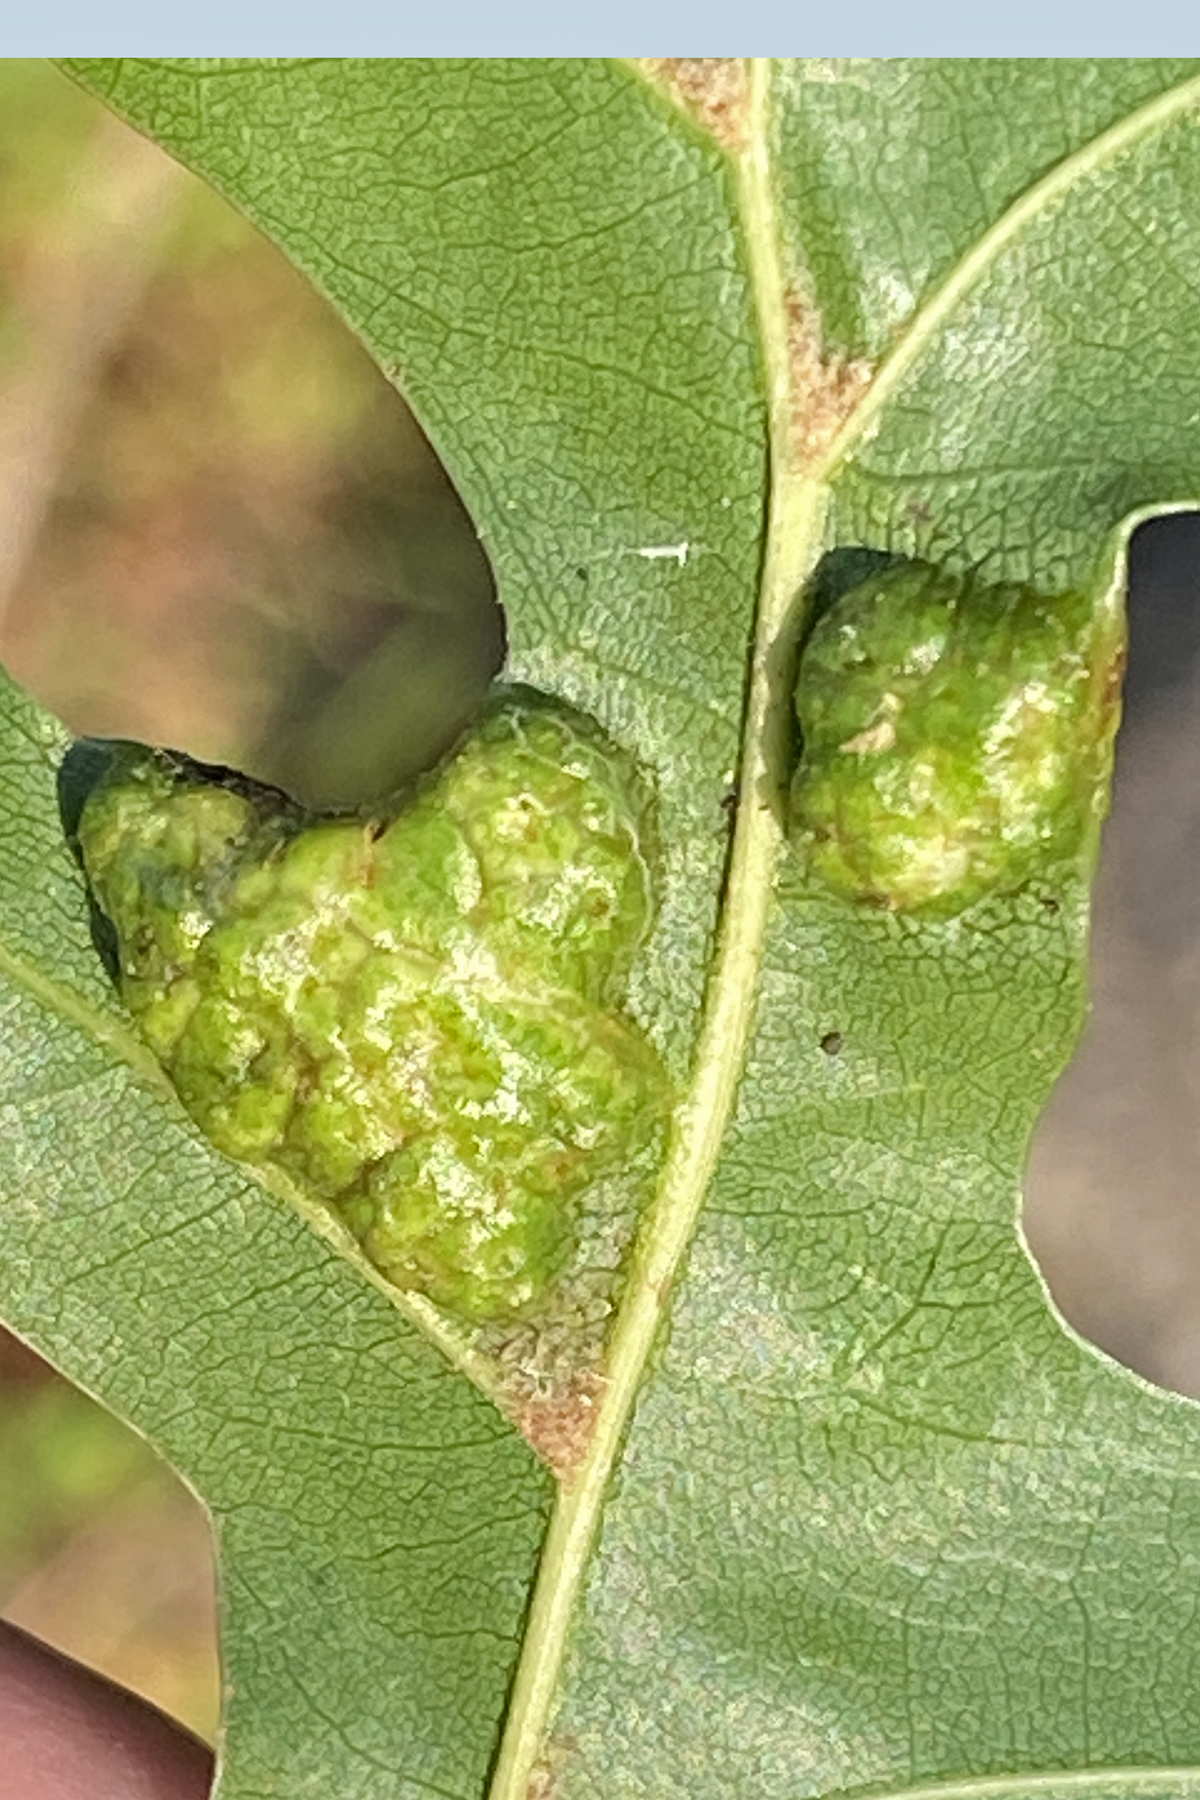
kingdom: Animalia
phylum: Arthropoda
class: Insecta
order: Hymenoptera
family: Cynipidae
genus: Callirhytis
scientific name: Callirhytis
